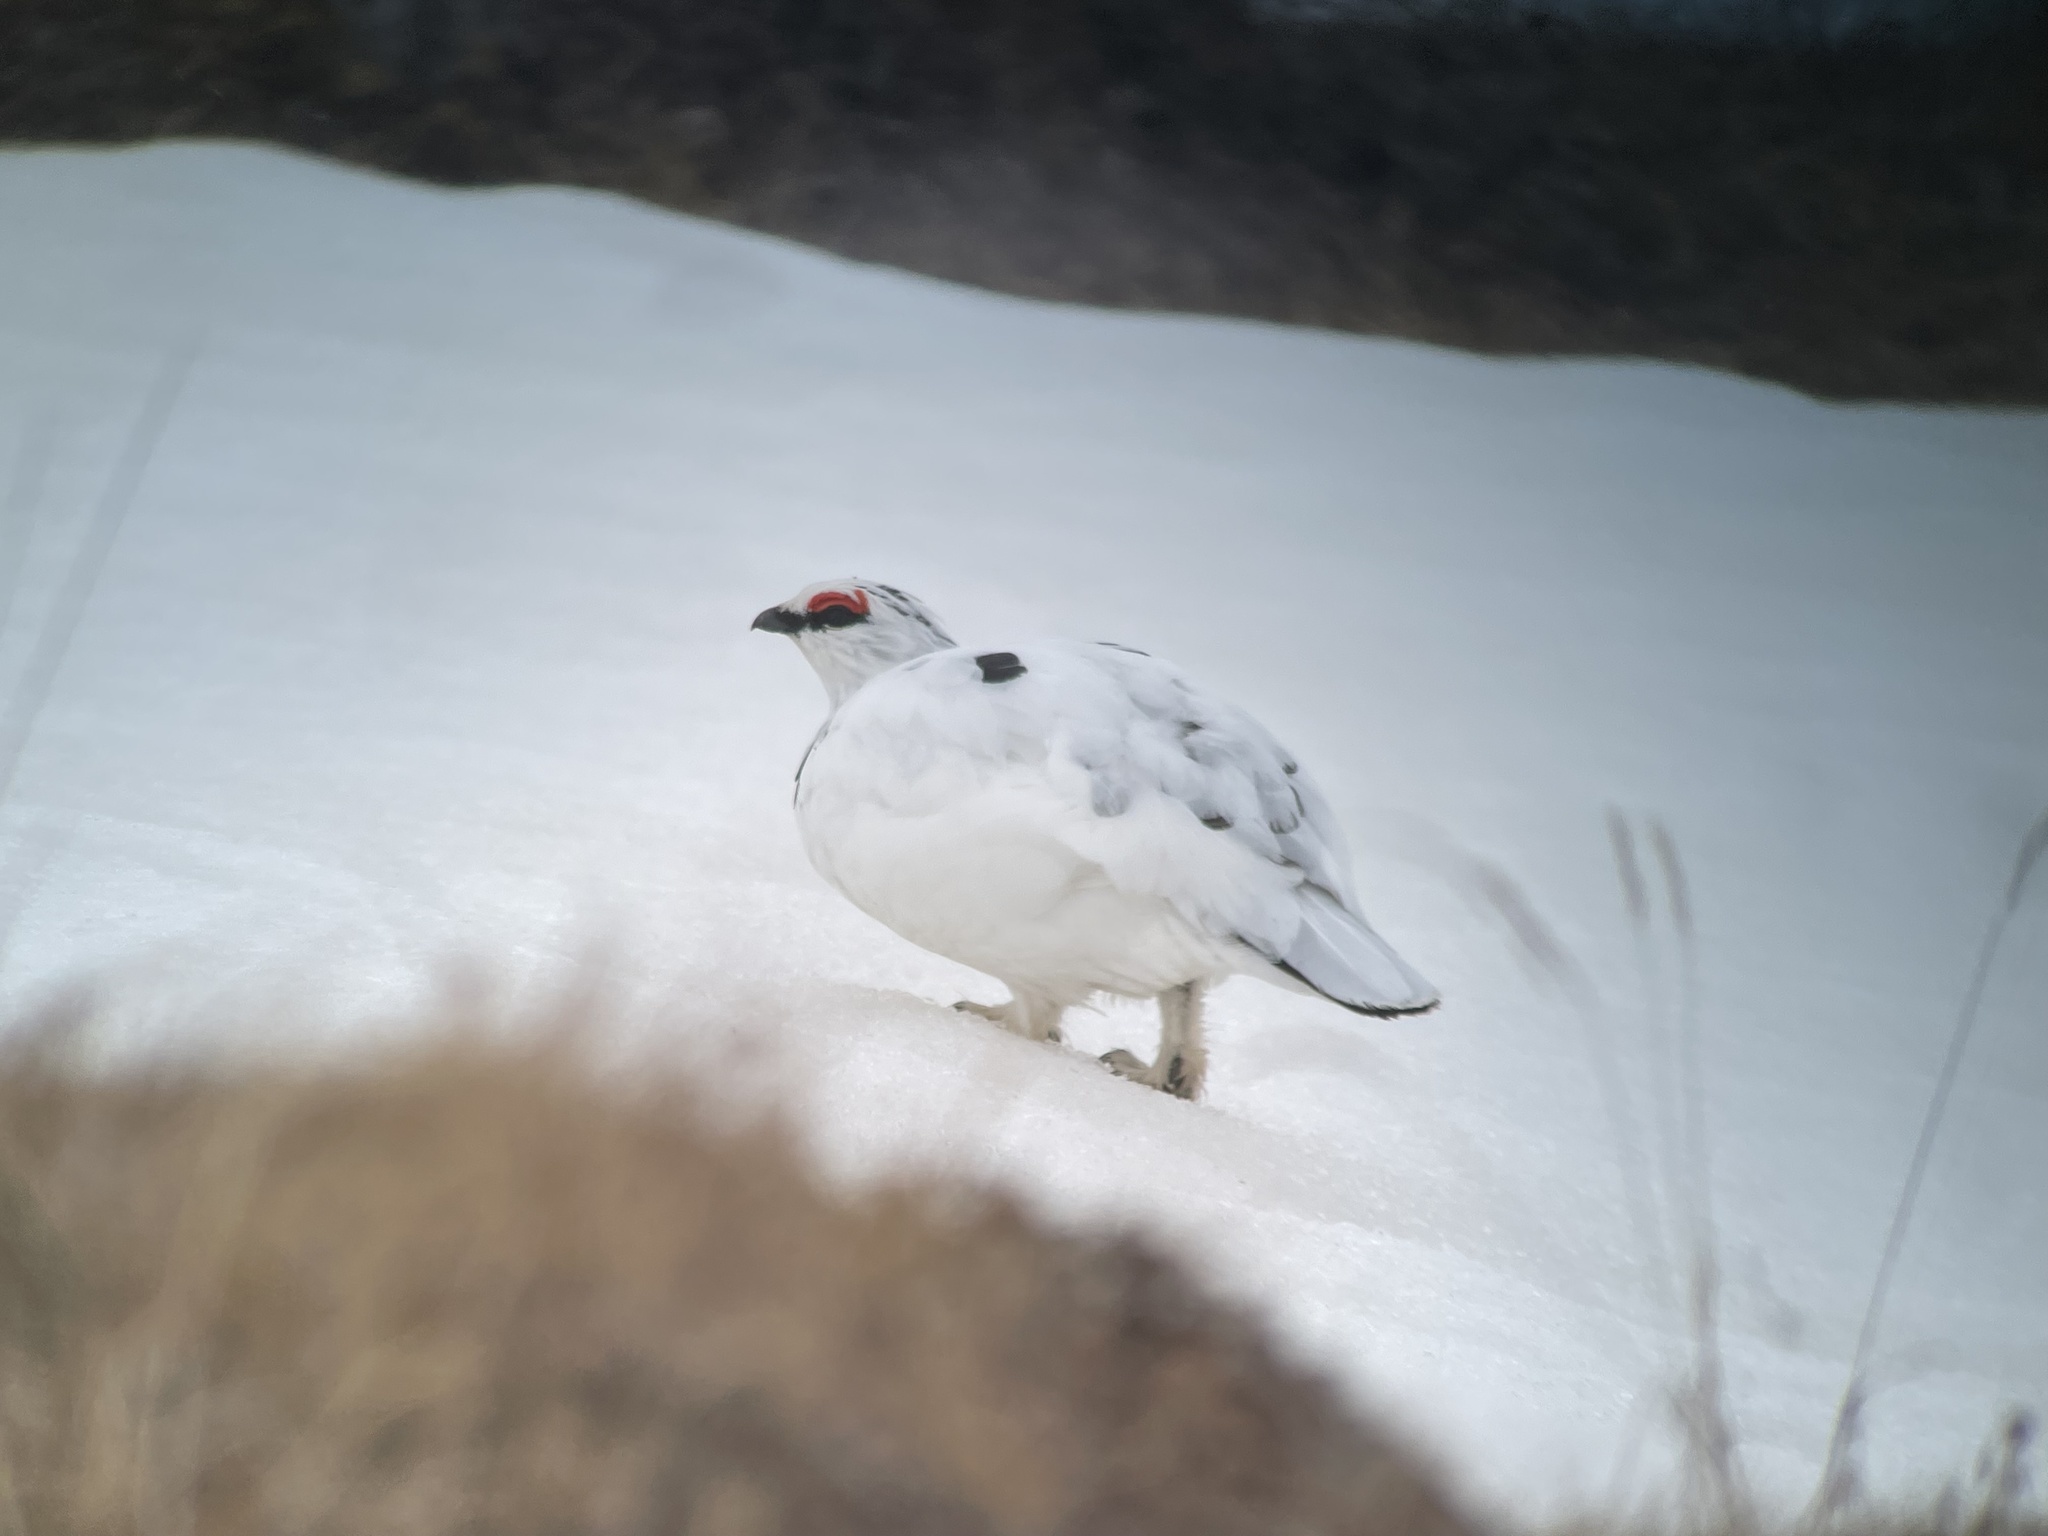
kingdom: Animalia
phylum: Chordata
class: Aves
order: Galliformes
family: Phasianidae
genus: Lagopus
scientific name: Lagopus muta
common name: Rock ptarmigan
